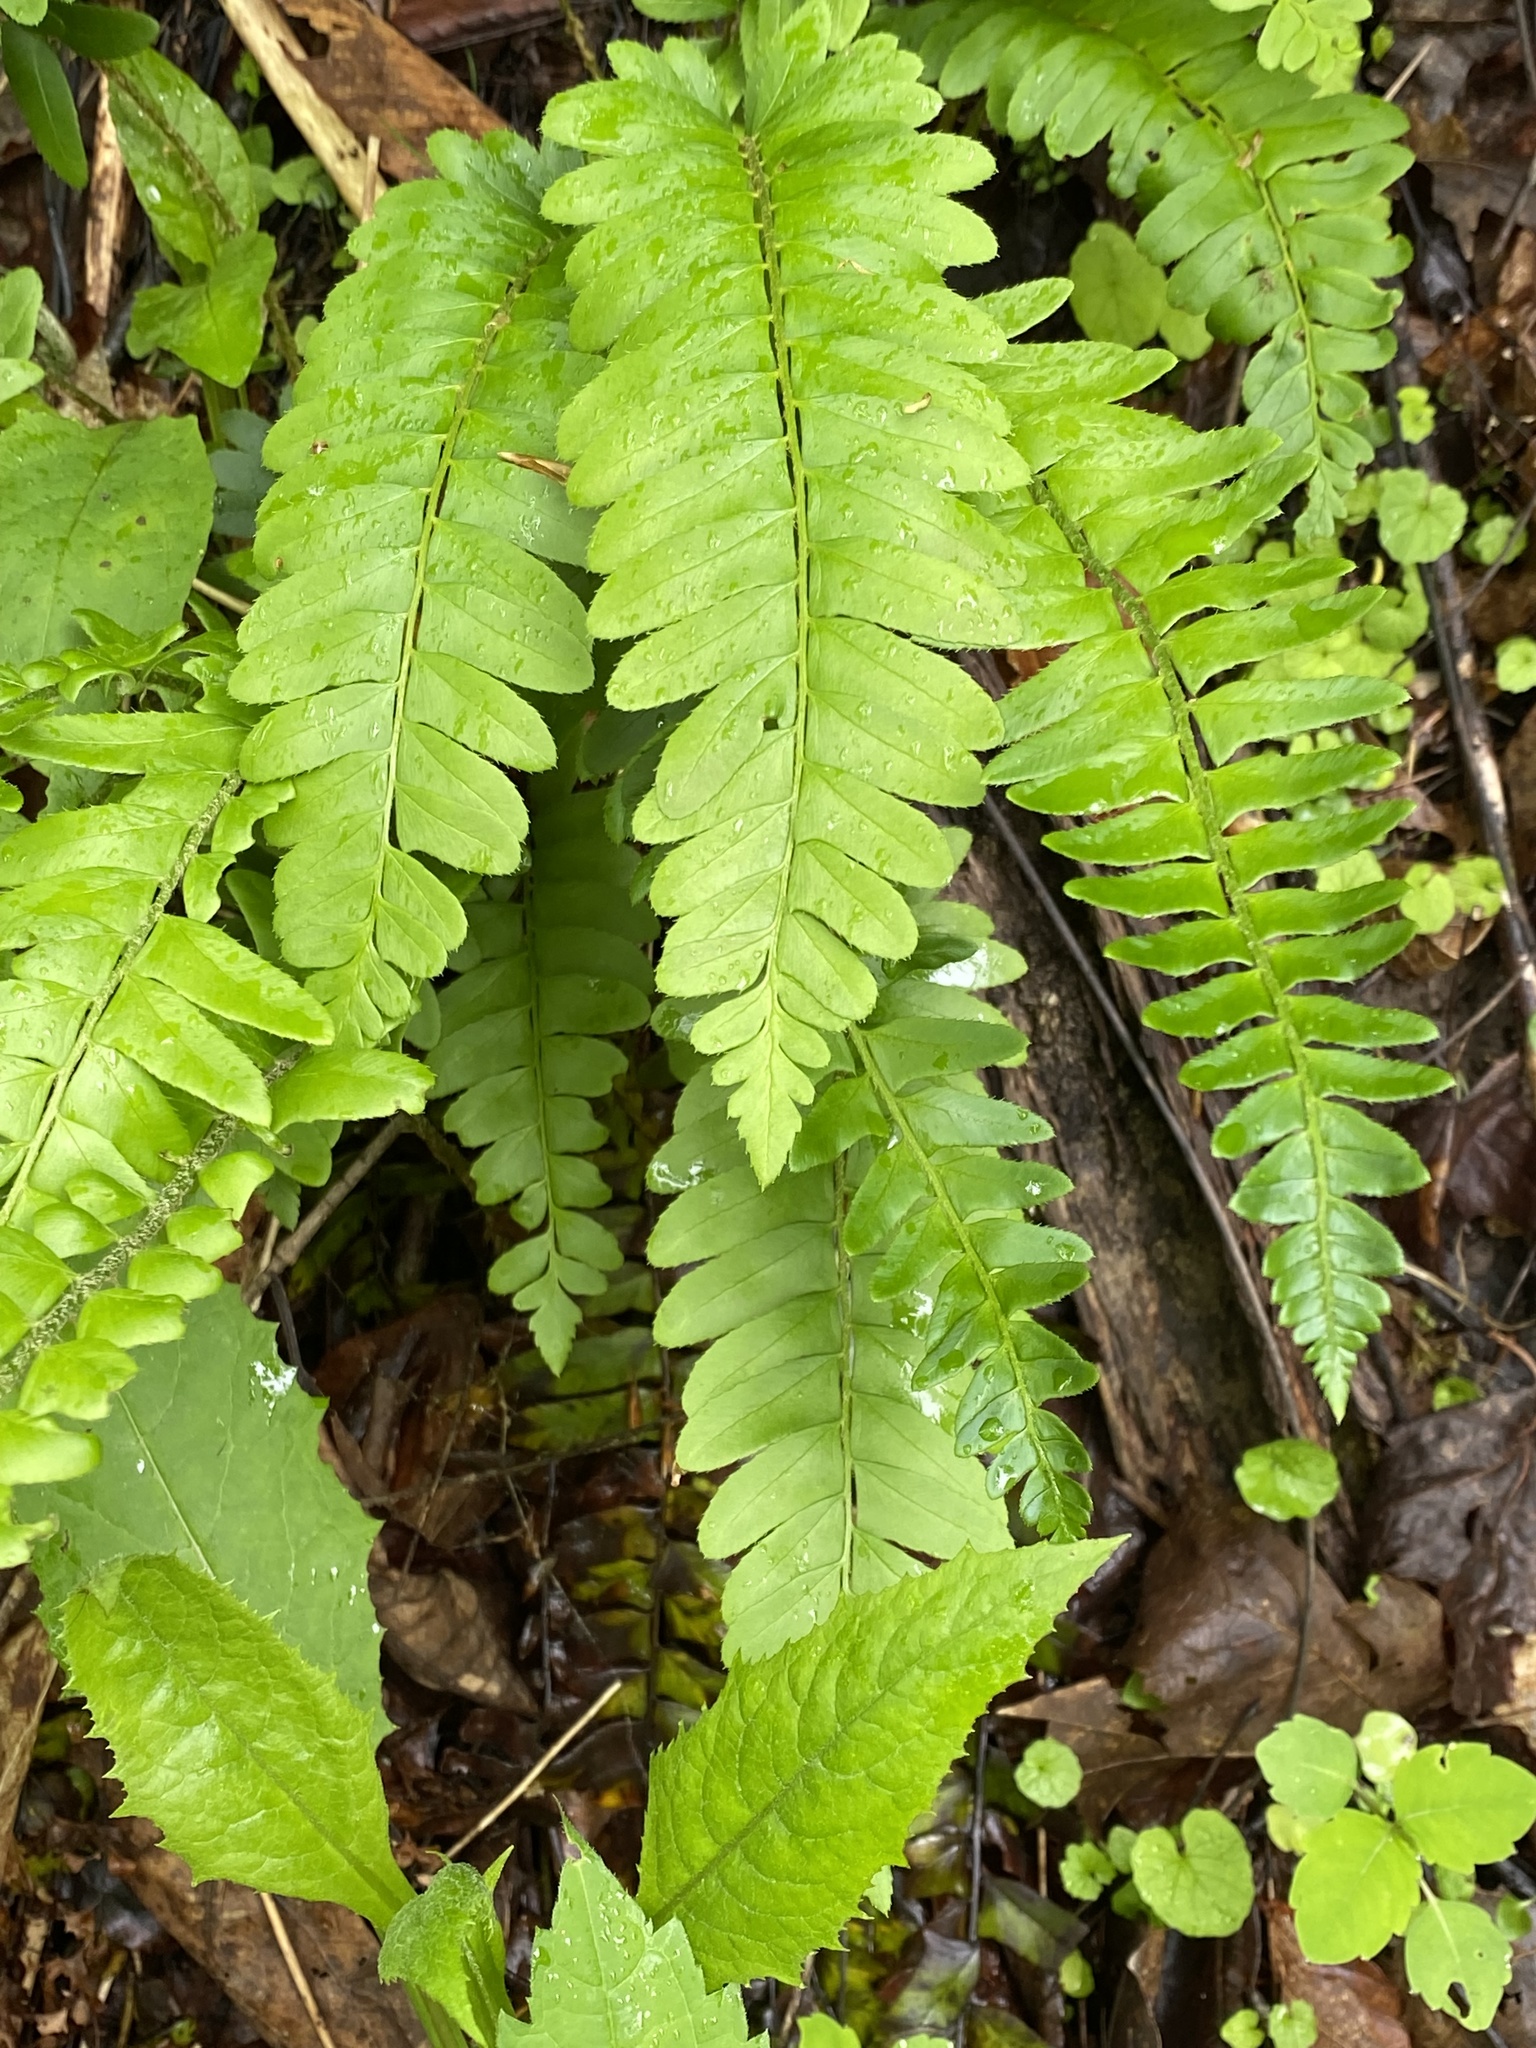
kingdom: Plantae
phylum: Tracheophyta
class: Polypodiopsida
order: Polypodiales
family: Dryopteridaceae
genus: Polystichum
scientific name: Polystichum acrostichoides
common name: Christmas fern
